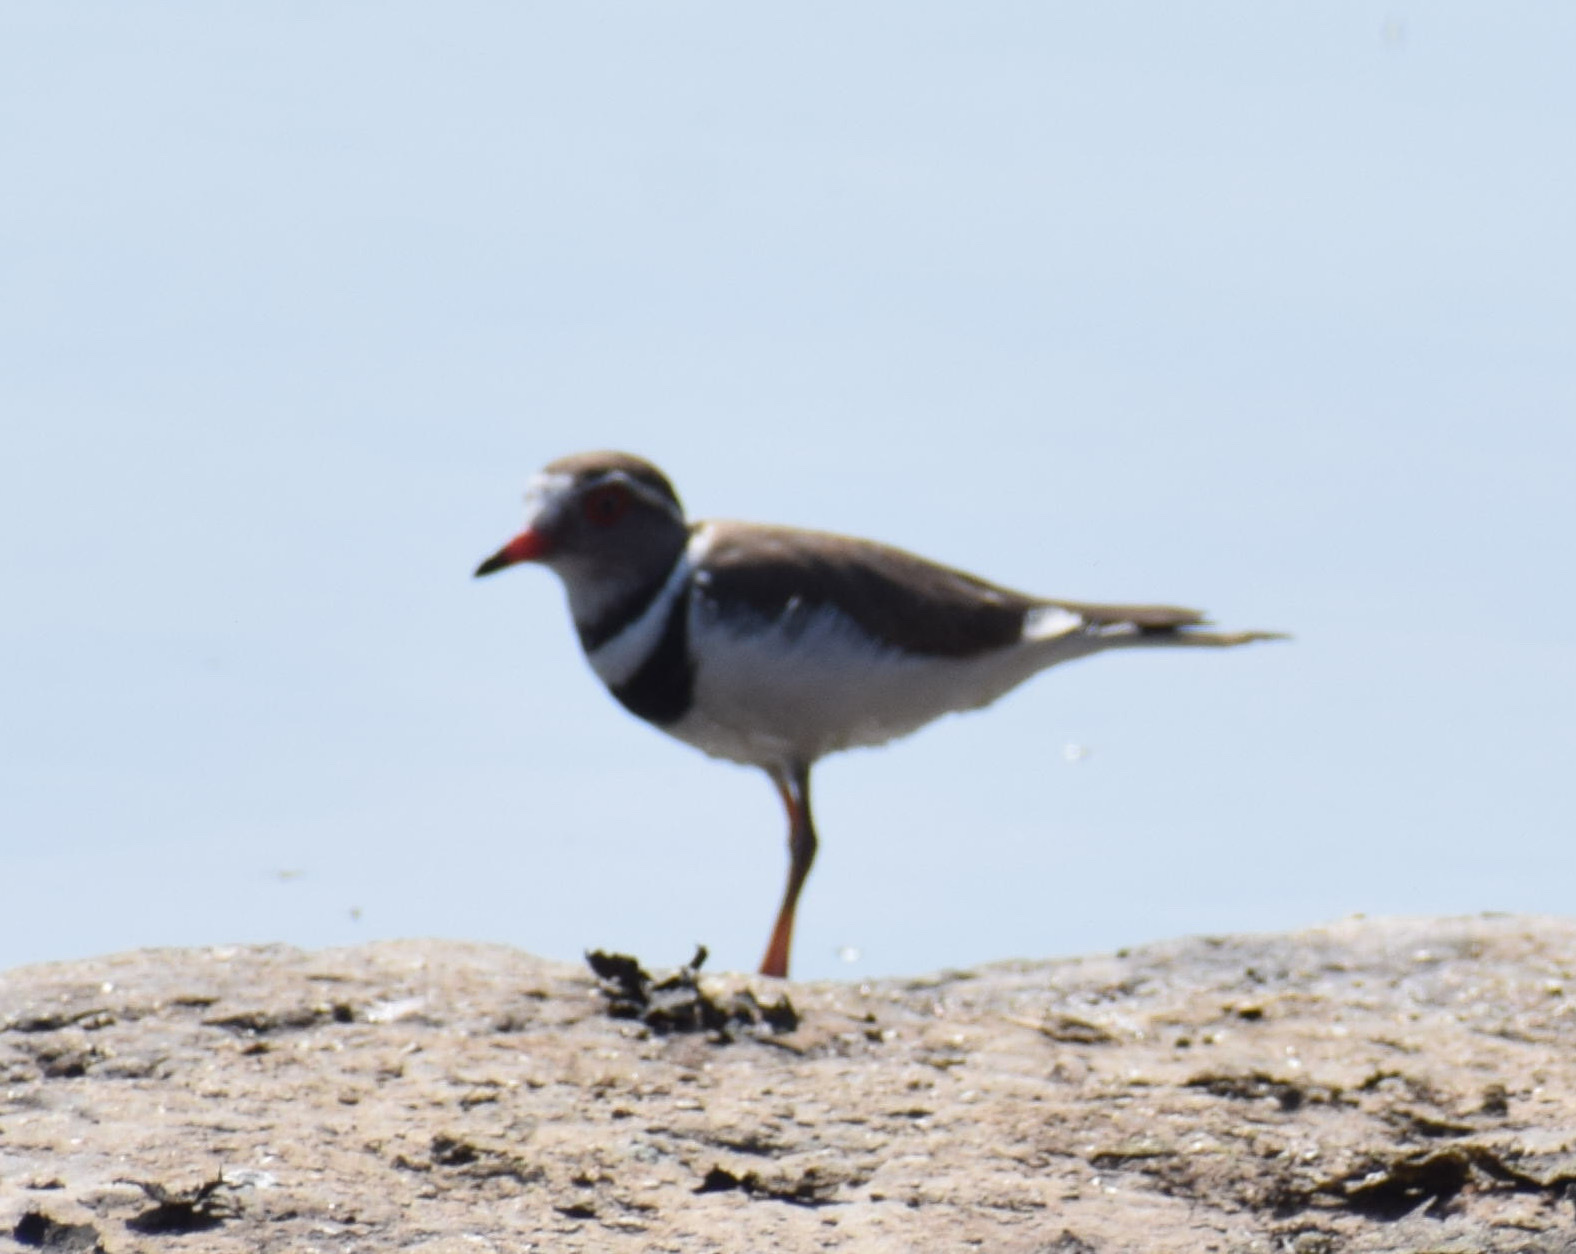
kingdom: Animalia
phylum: Chordata
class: Aves
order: Charadriiformes
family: Charadriidae
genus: Charadrius
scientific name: Charadrius tricollaris
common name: Three-banded plover
